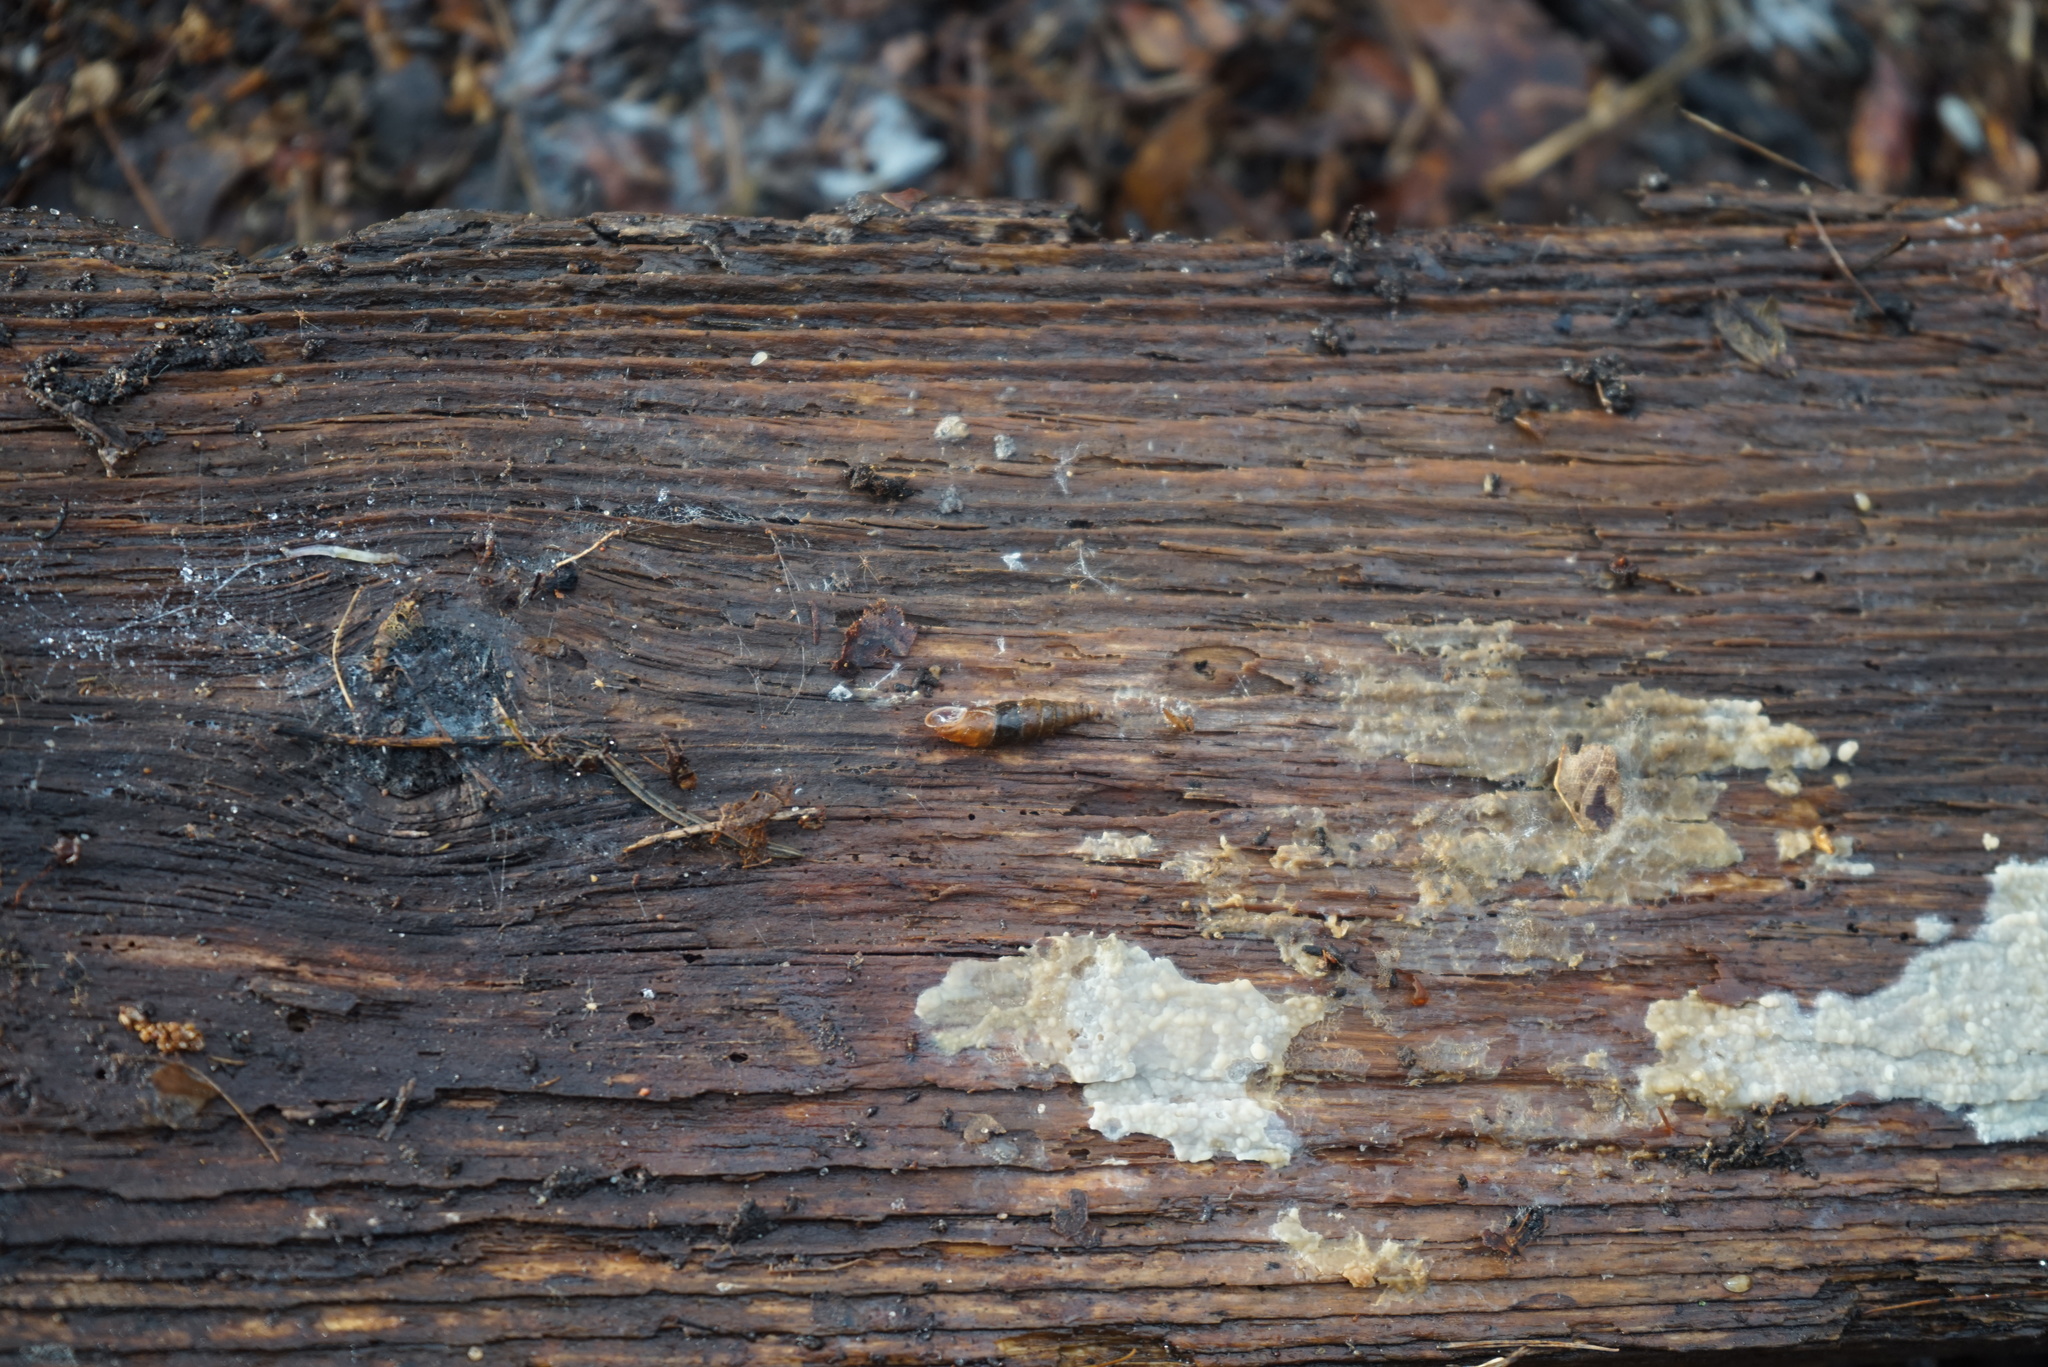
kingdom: Animalia
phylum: Mollusca
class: Gastropoda
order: Stylommatophora
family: Clausiliidae
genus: Cochlodina
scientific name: Cochlodina laminata
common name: Plaited door snail
